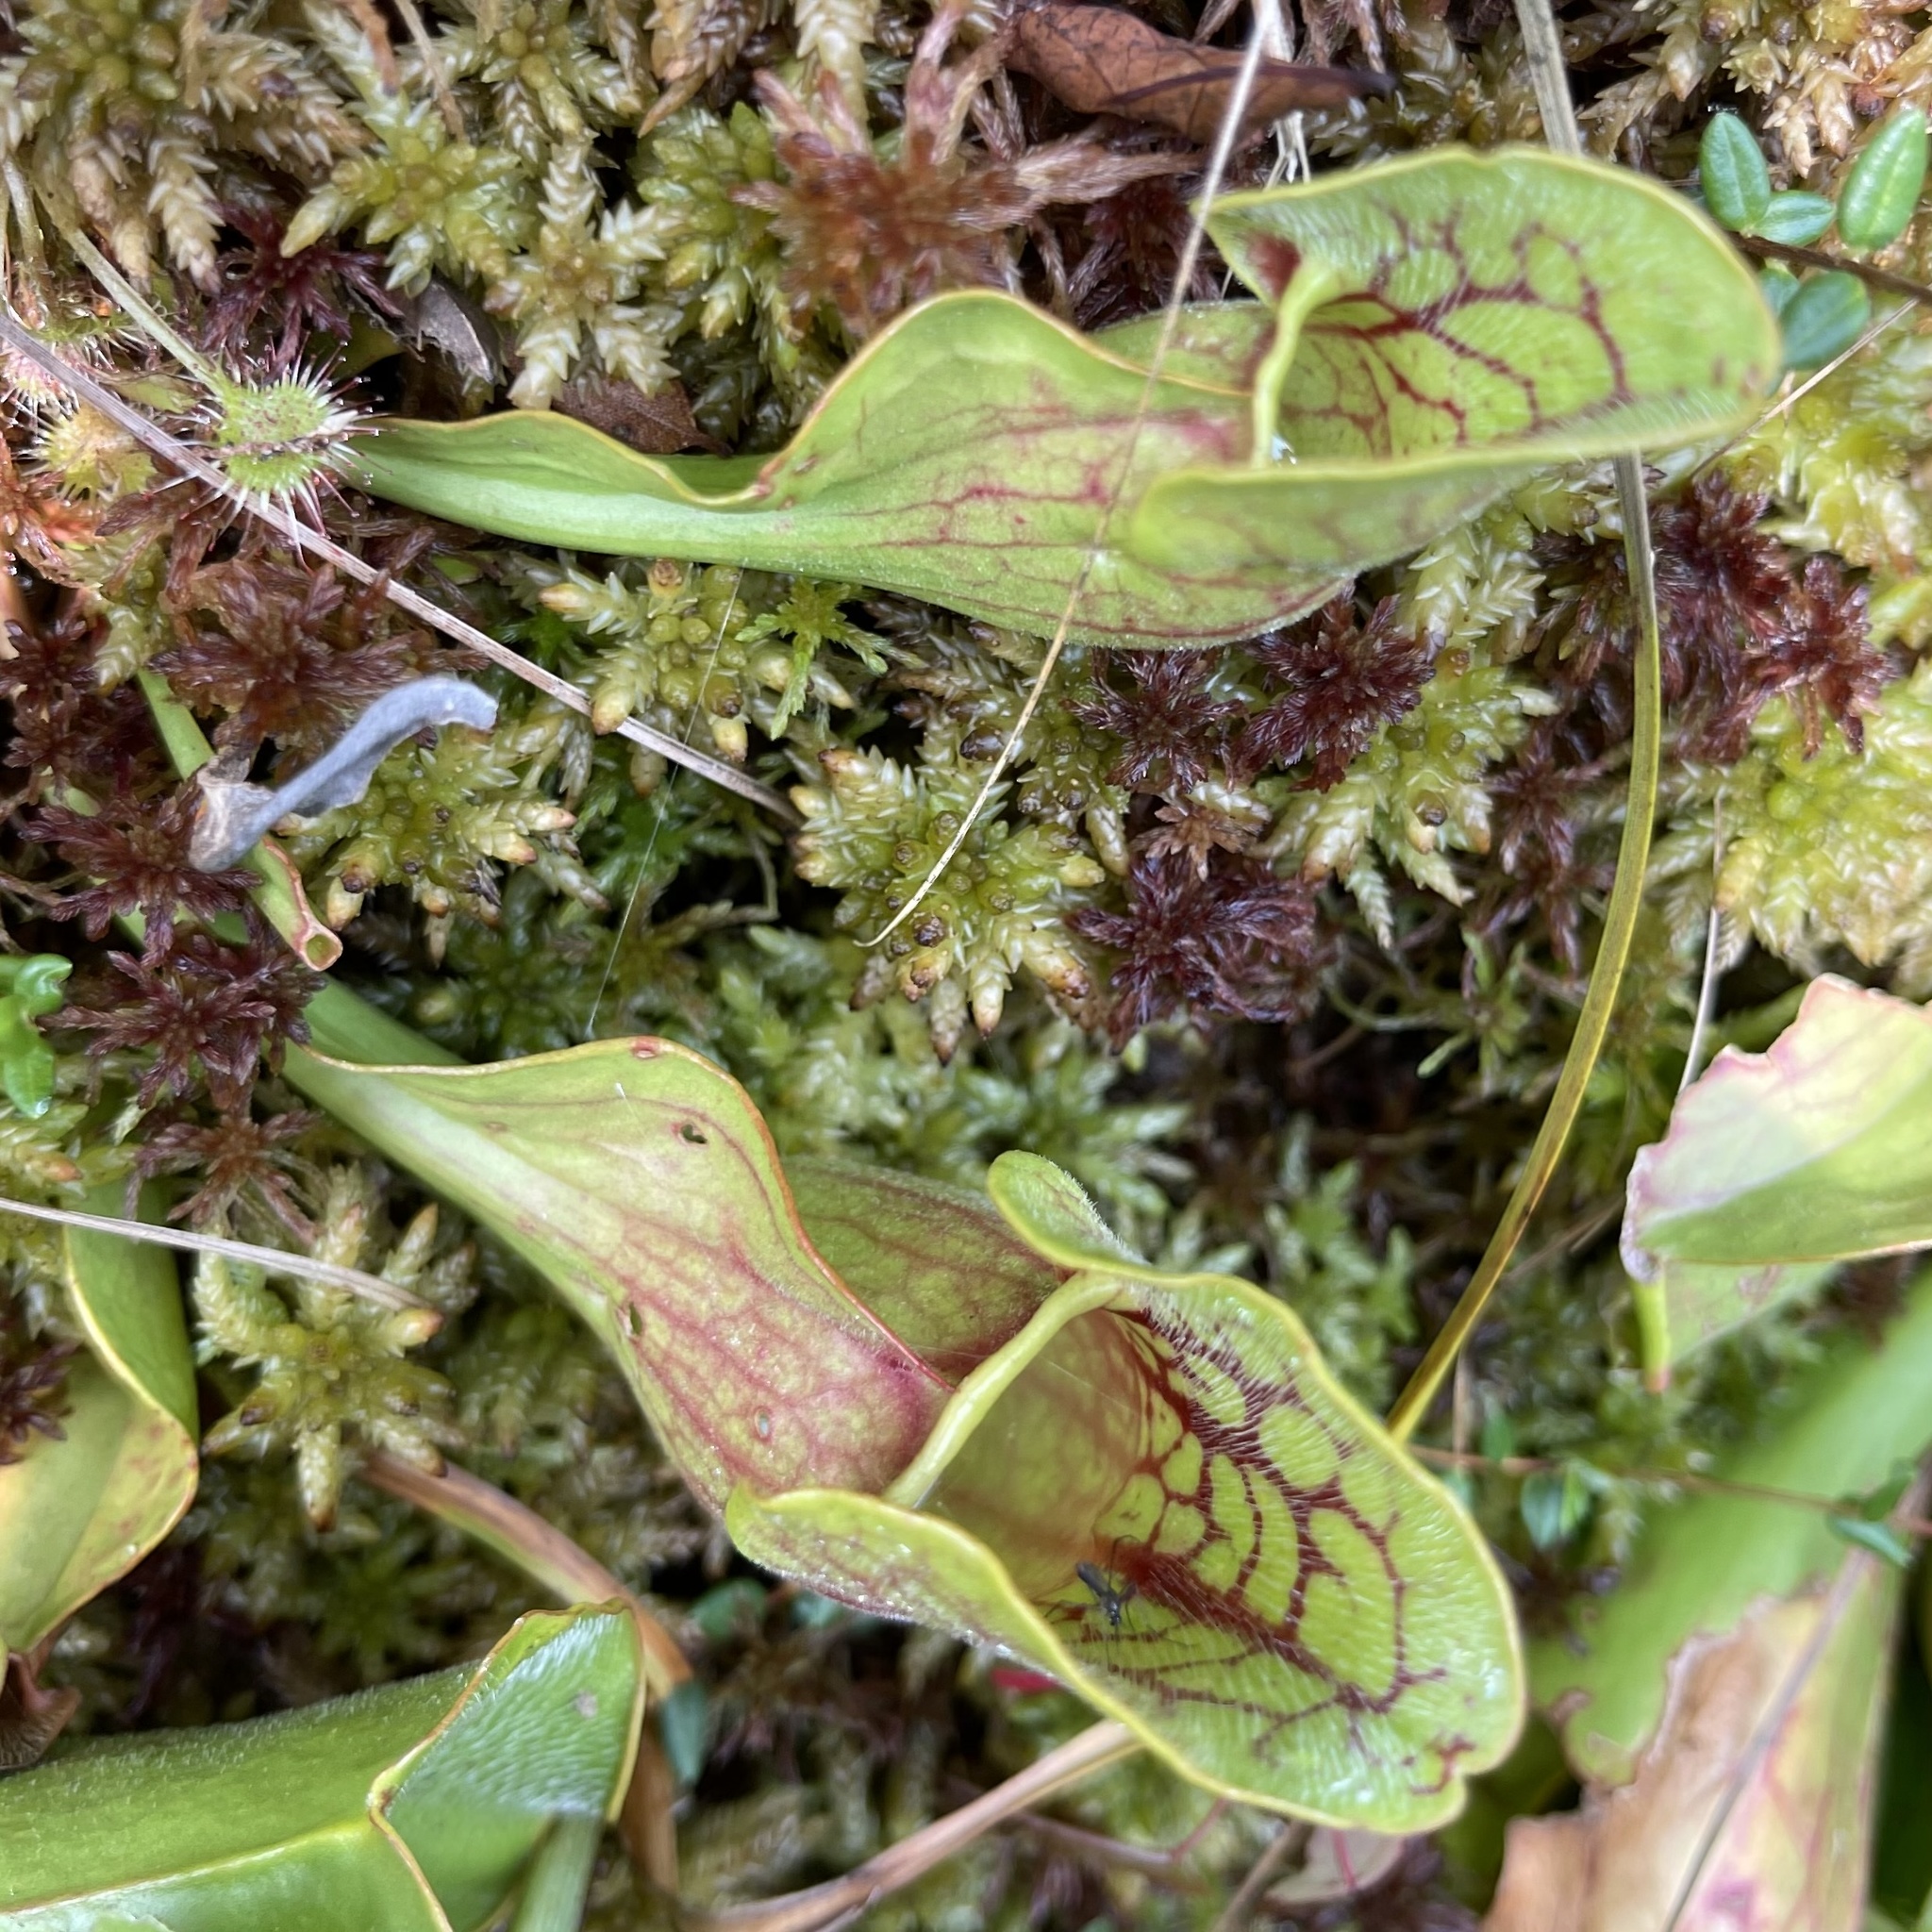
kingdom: Plantae
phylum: Tracheophyta
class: Magnoliopsida
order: Ericales
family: Sarraceniaceae
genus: Sarracenia
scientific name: Sarracenia purpurea
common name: Pitcherplant
